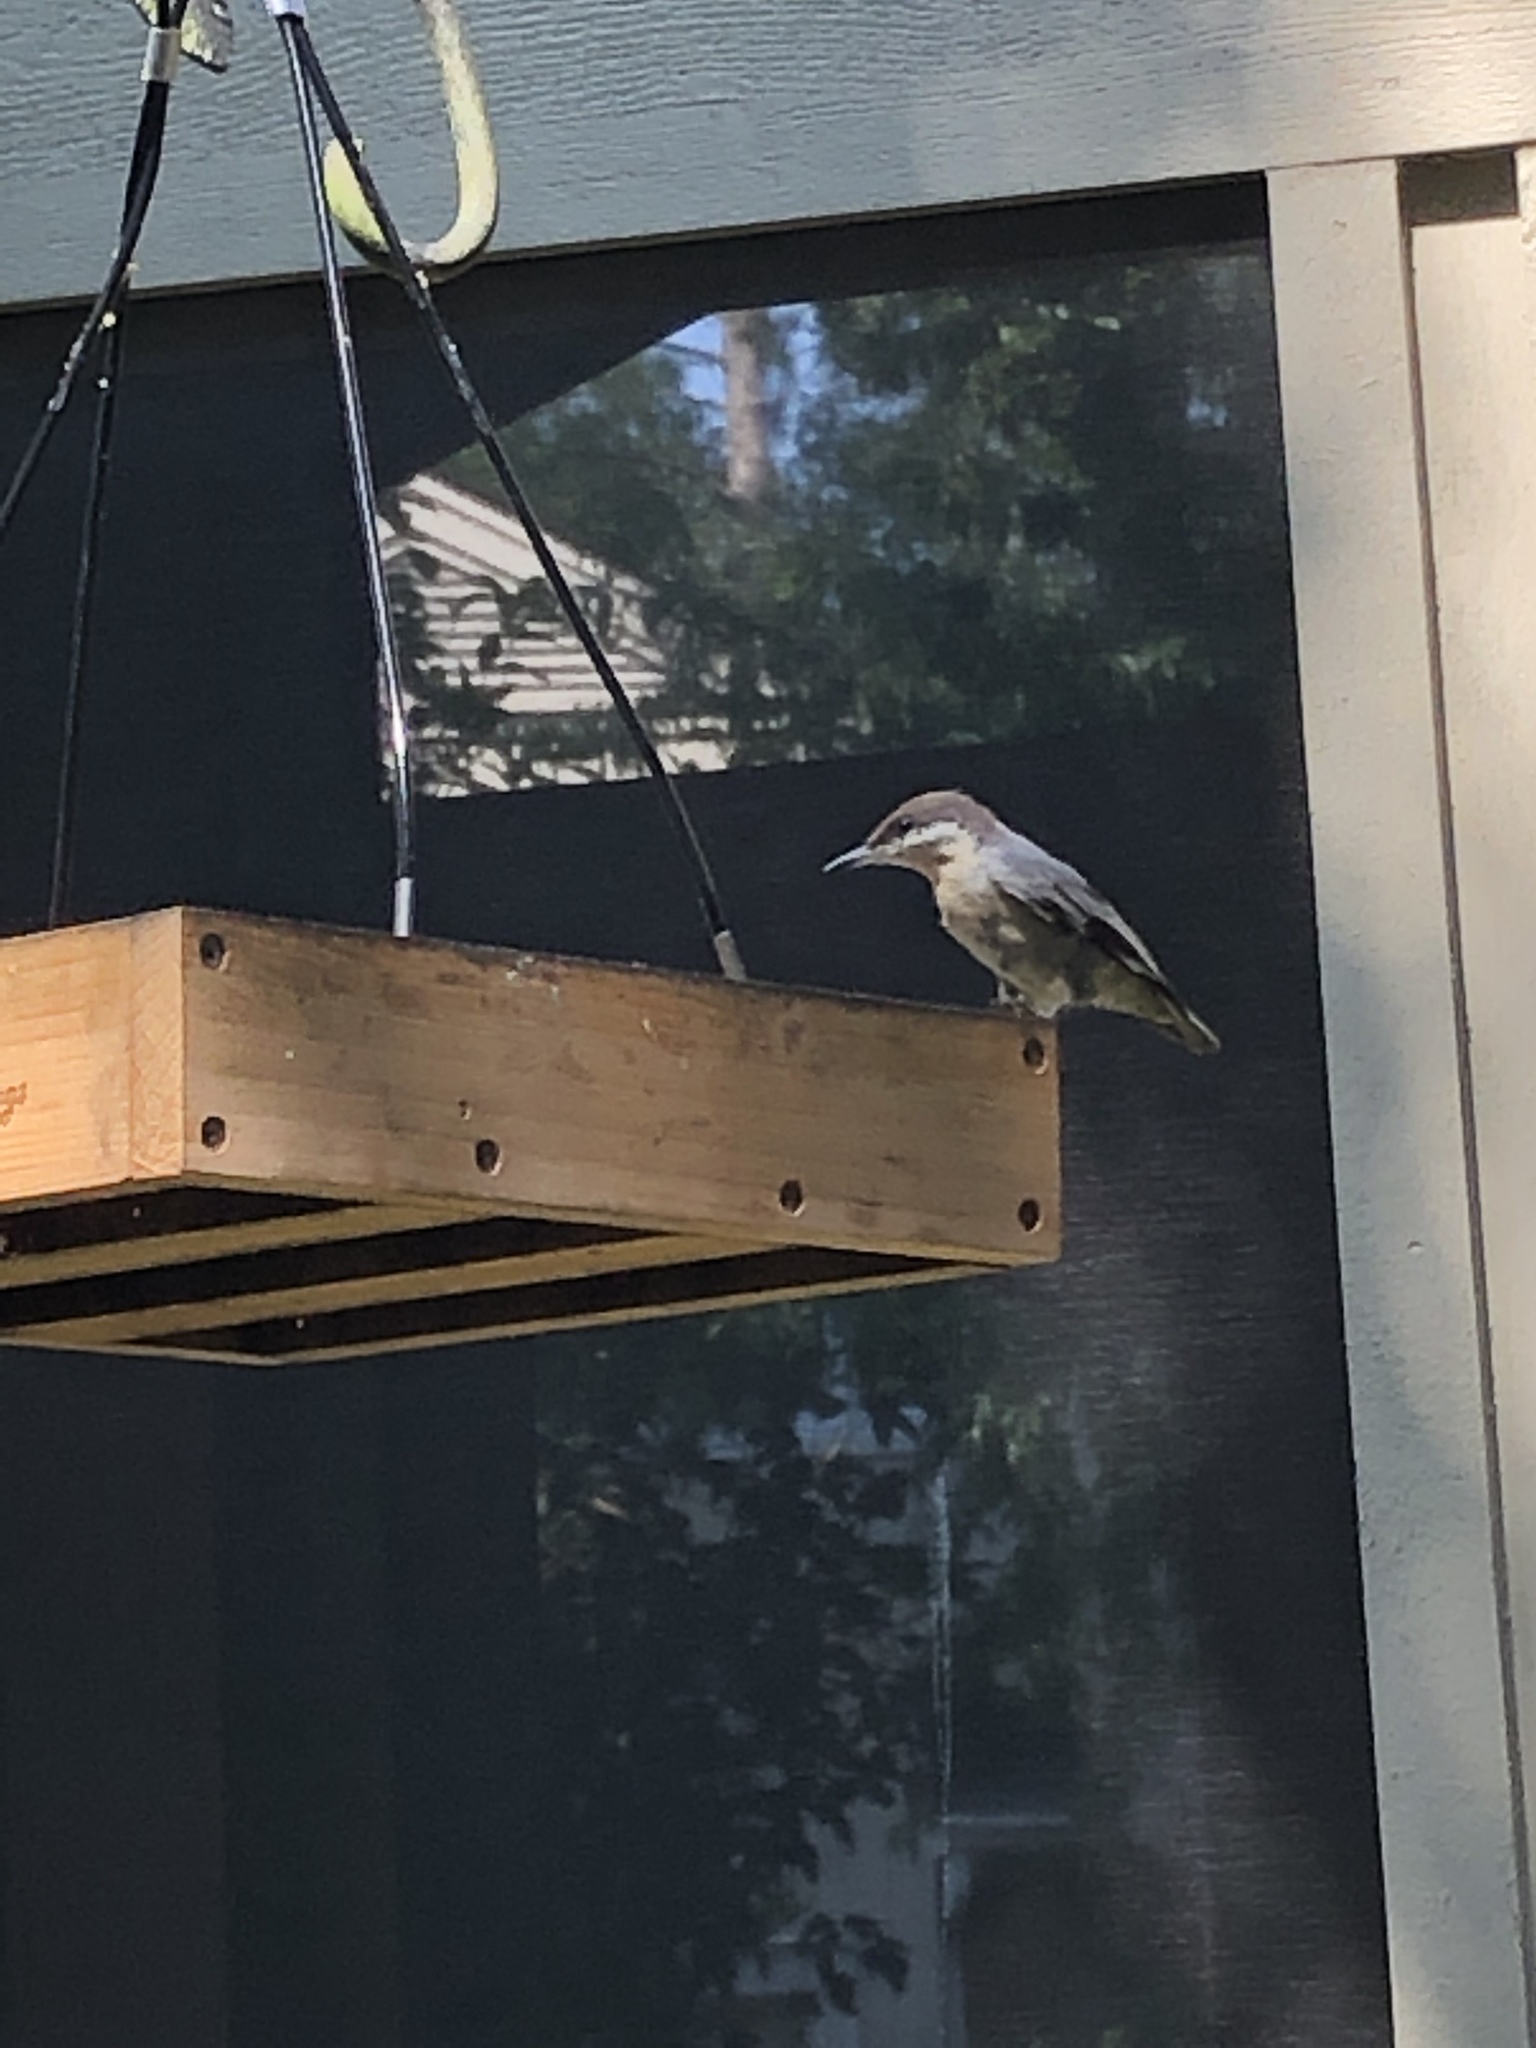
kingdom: Animalia
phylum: Chordata
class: Aves
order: Passeriformes
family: Sittidae
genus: Sitta
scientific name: Sitta pusilla
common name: Brown-headed nuthatch
